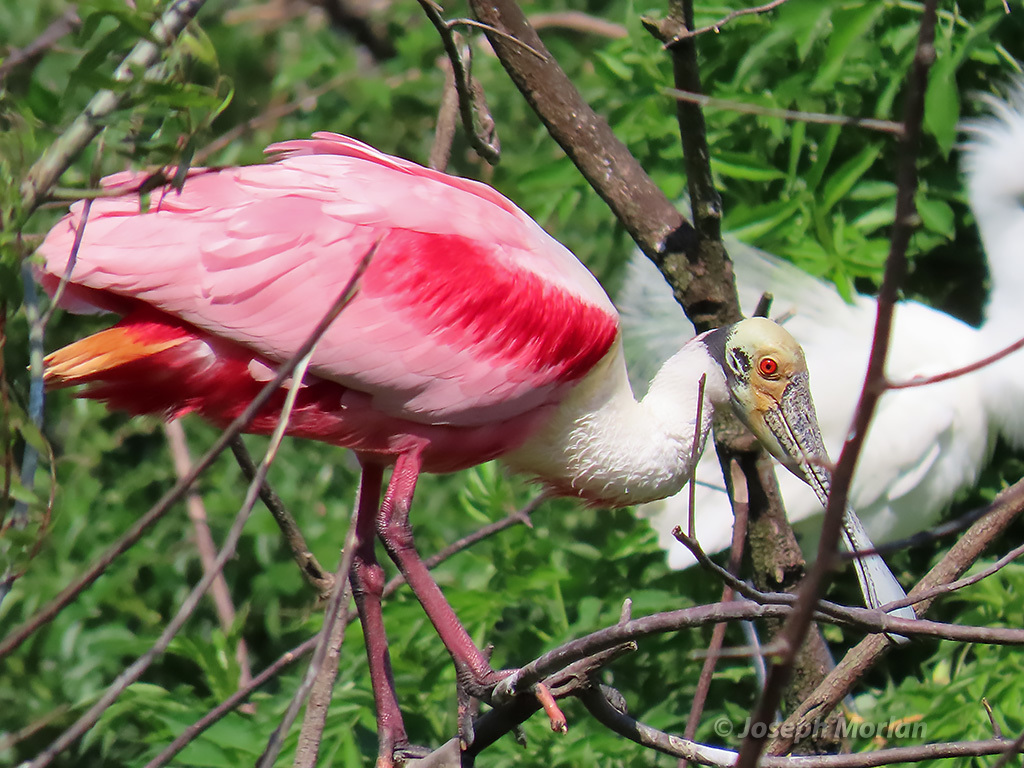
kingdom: Animalia
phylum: Chordata
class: Aves
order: Pelecaniformes
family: Threskiornithidae
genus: Platalea
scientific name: Platalea ajaja
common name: Roseate spoonbill
